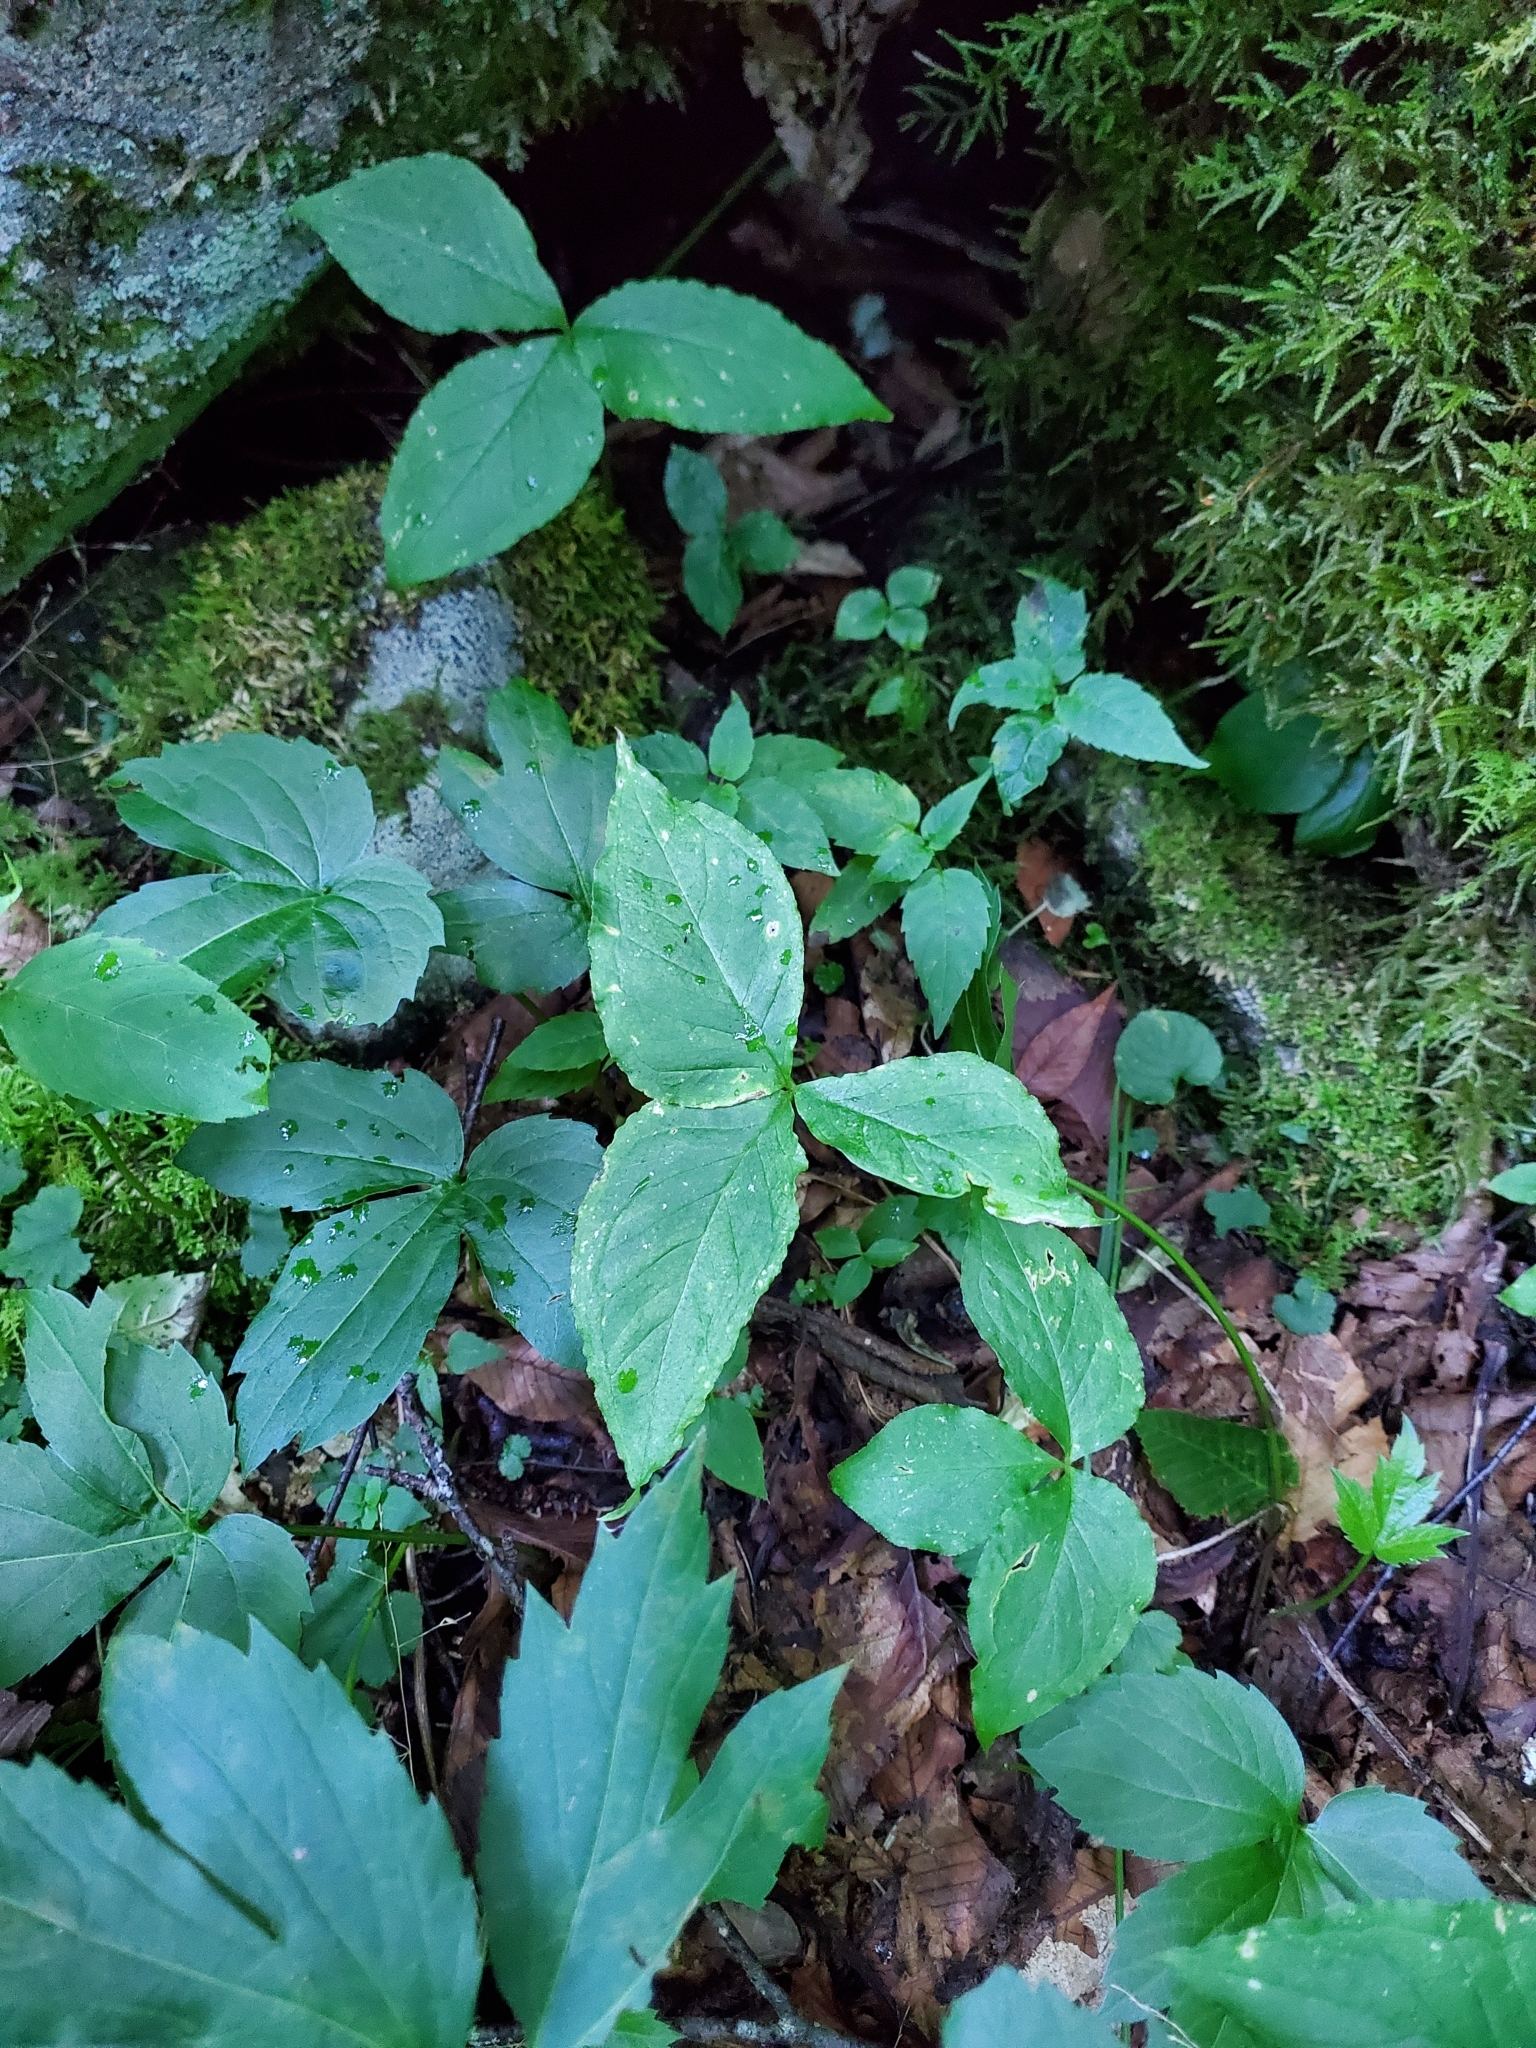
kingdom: Plantae
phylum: Tracheophyta
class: Liliopsida
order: Alismatales
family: Araceae
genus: Arisaema
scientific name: Arisaema triphyllum
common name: Jack-in-the-pulpit
